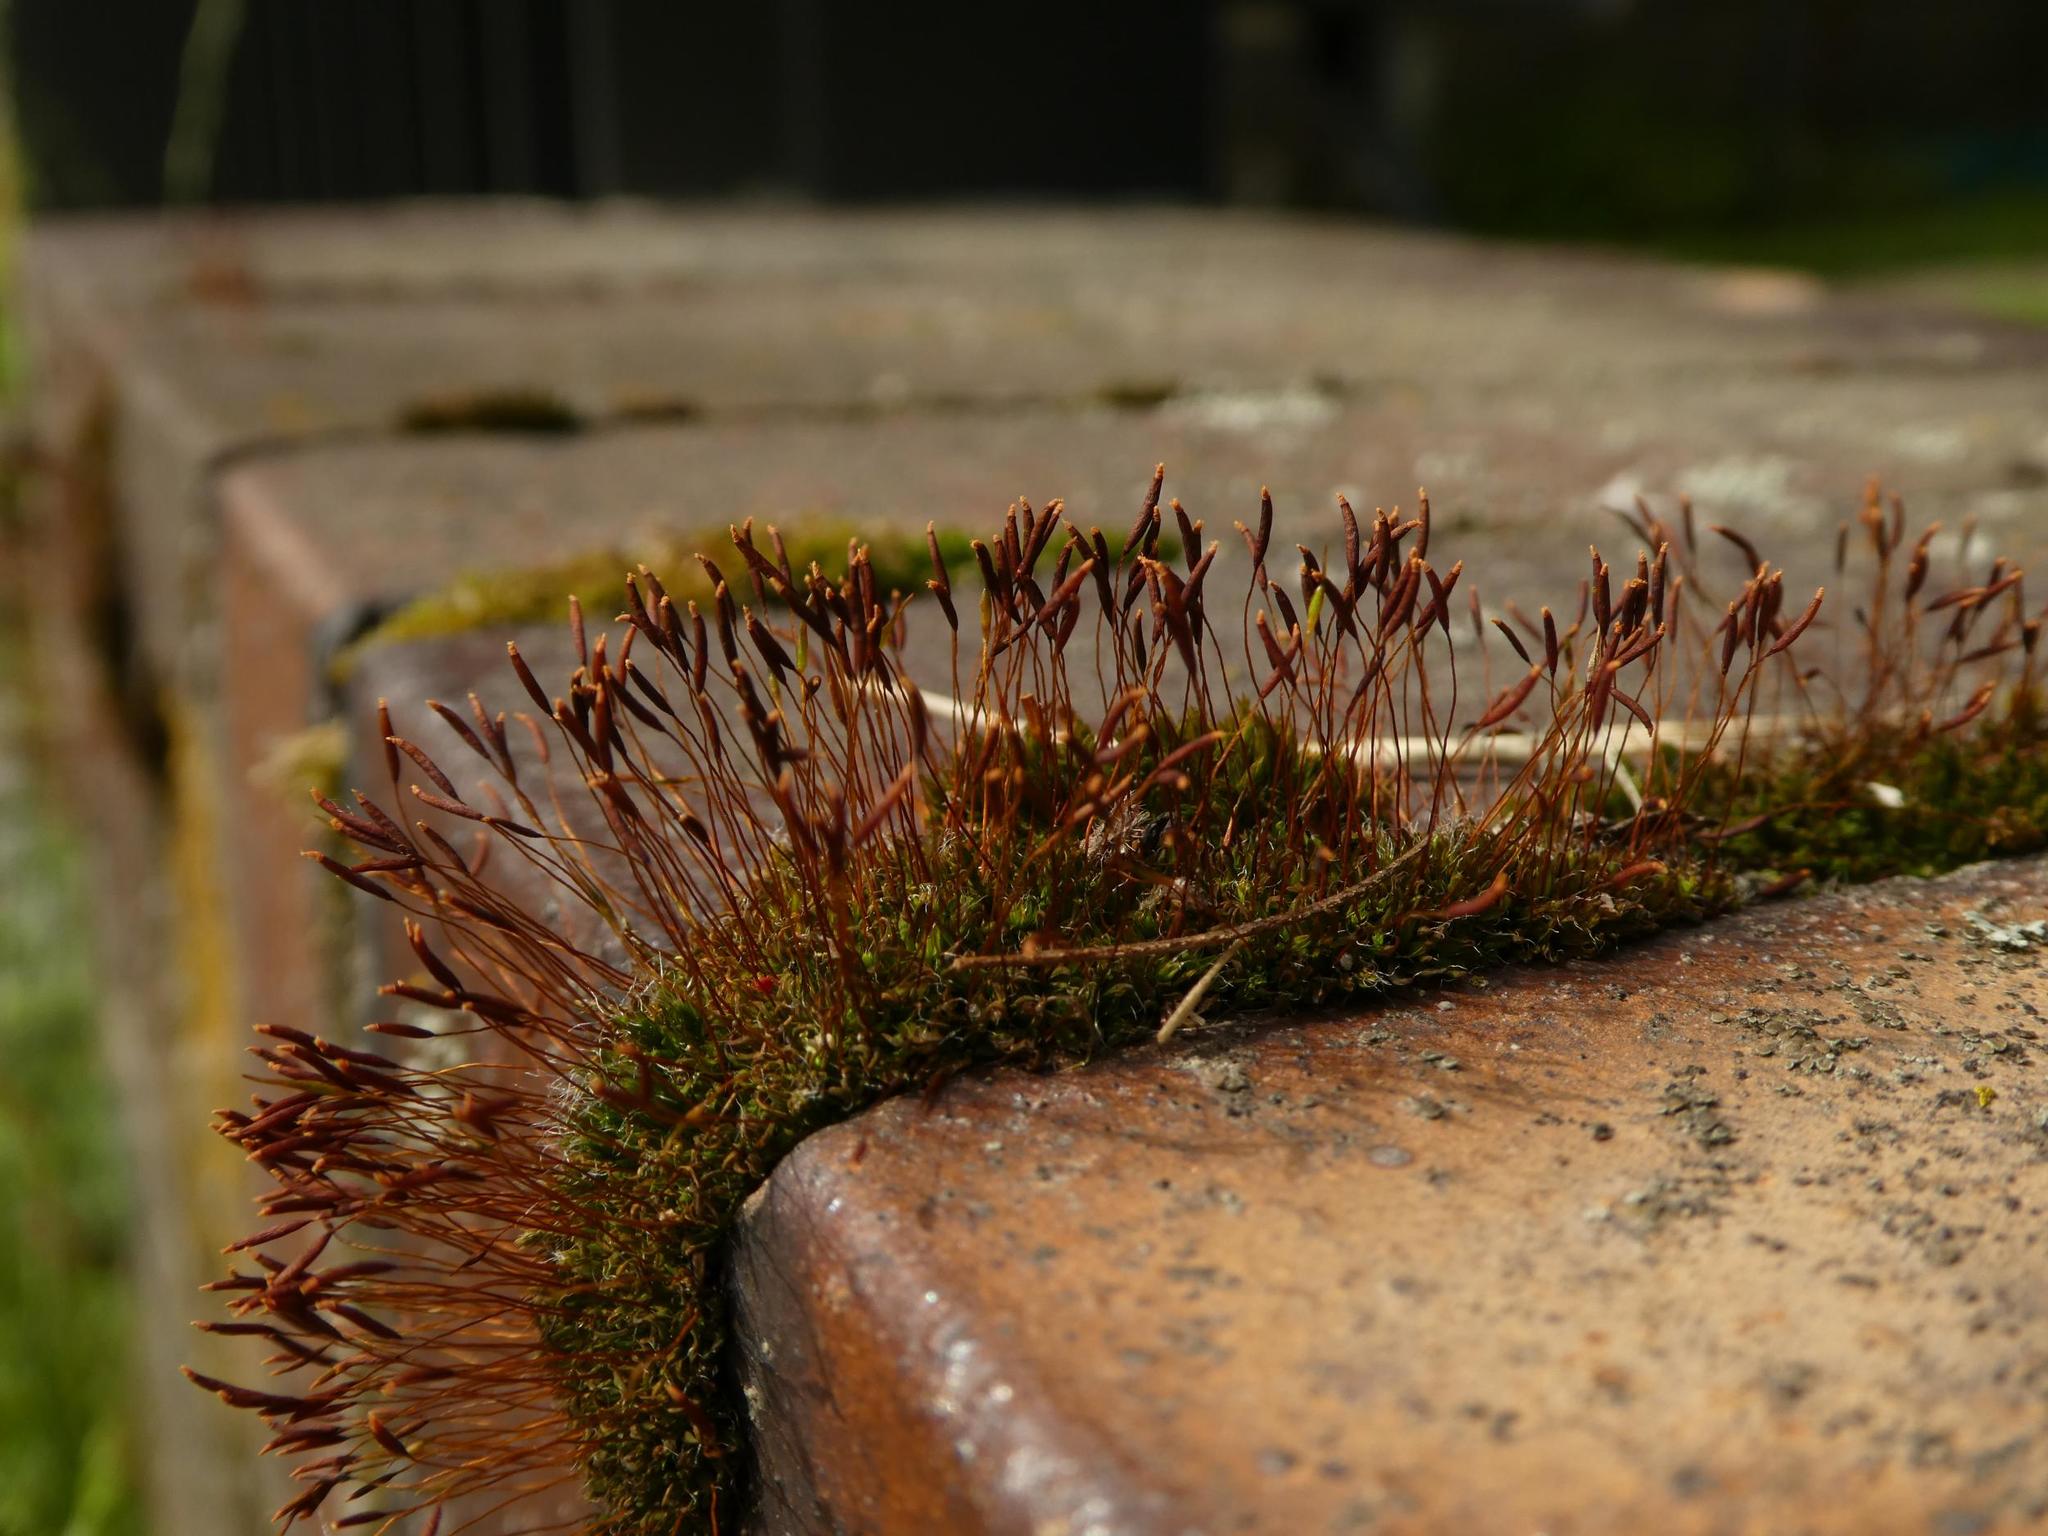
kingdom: Plantae
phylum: Bryophyta
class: Bryopsida
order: Pottiales
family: Pottiaceae
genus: Tortula
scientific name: Tortula muralis
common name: Wall screw-moss
